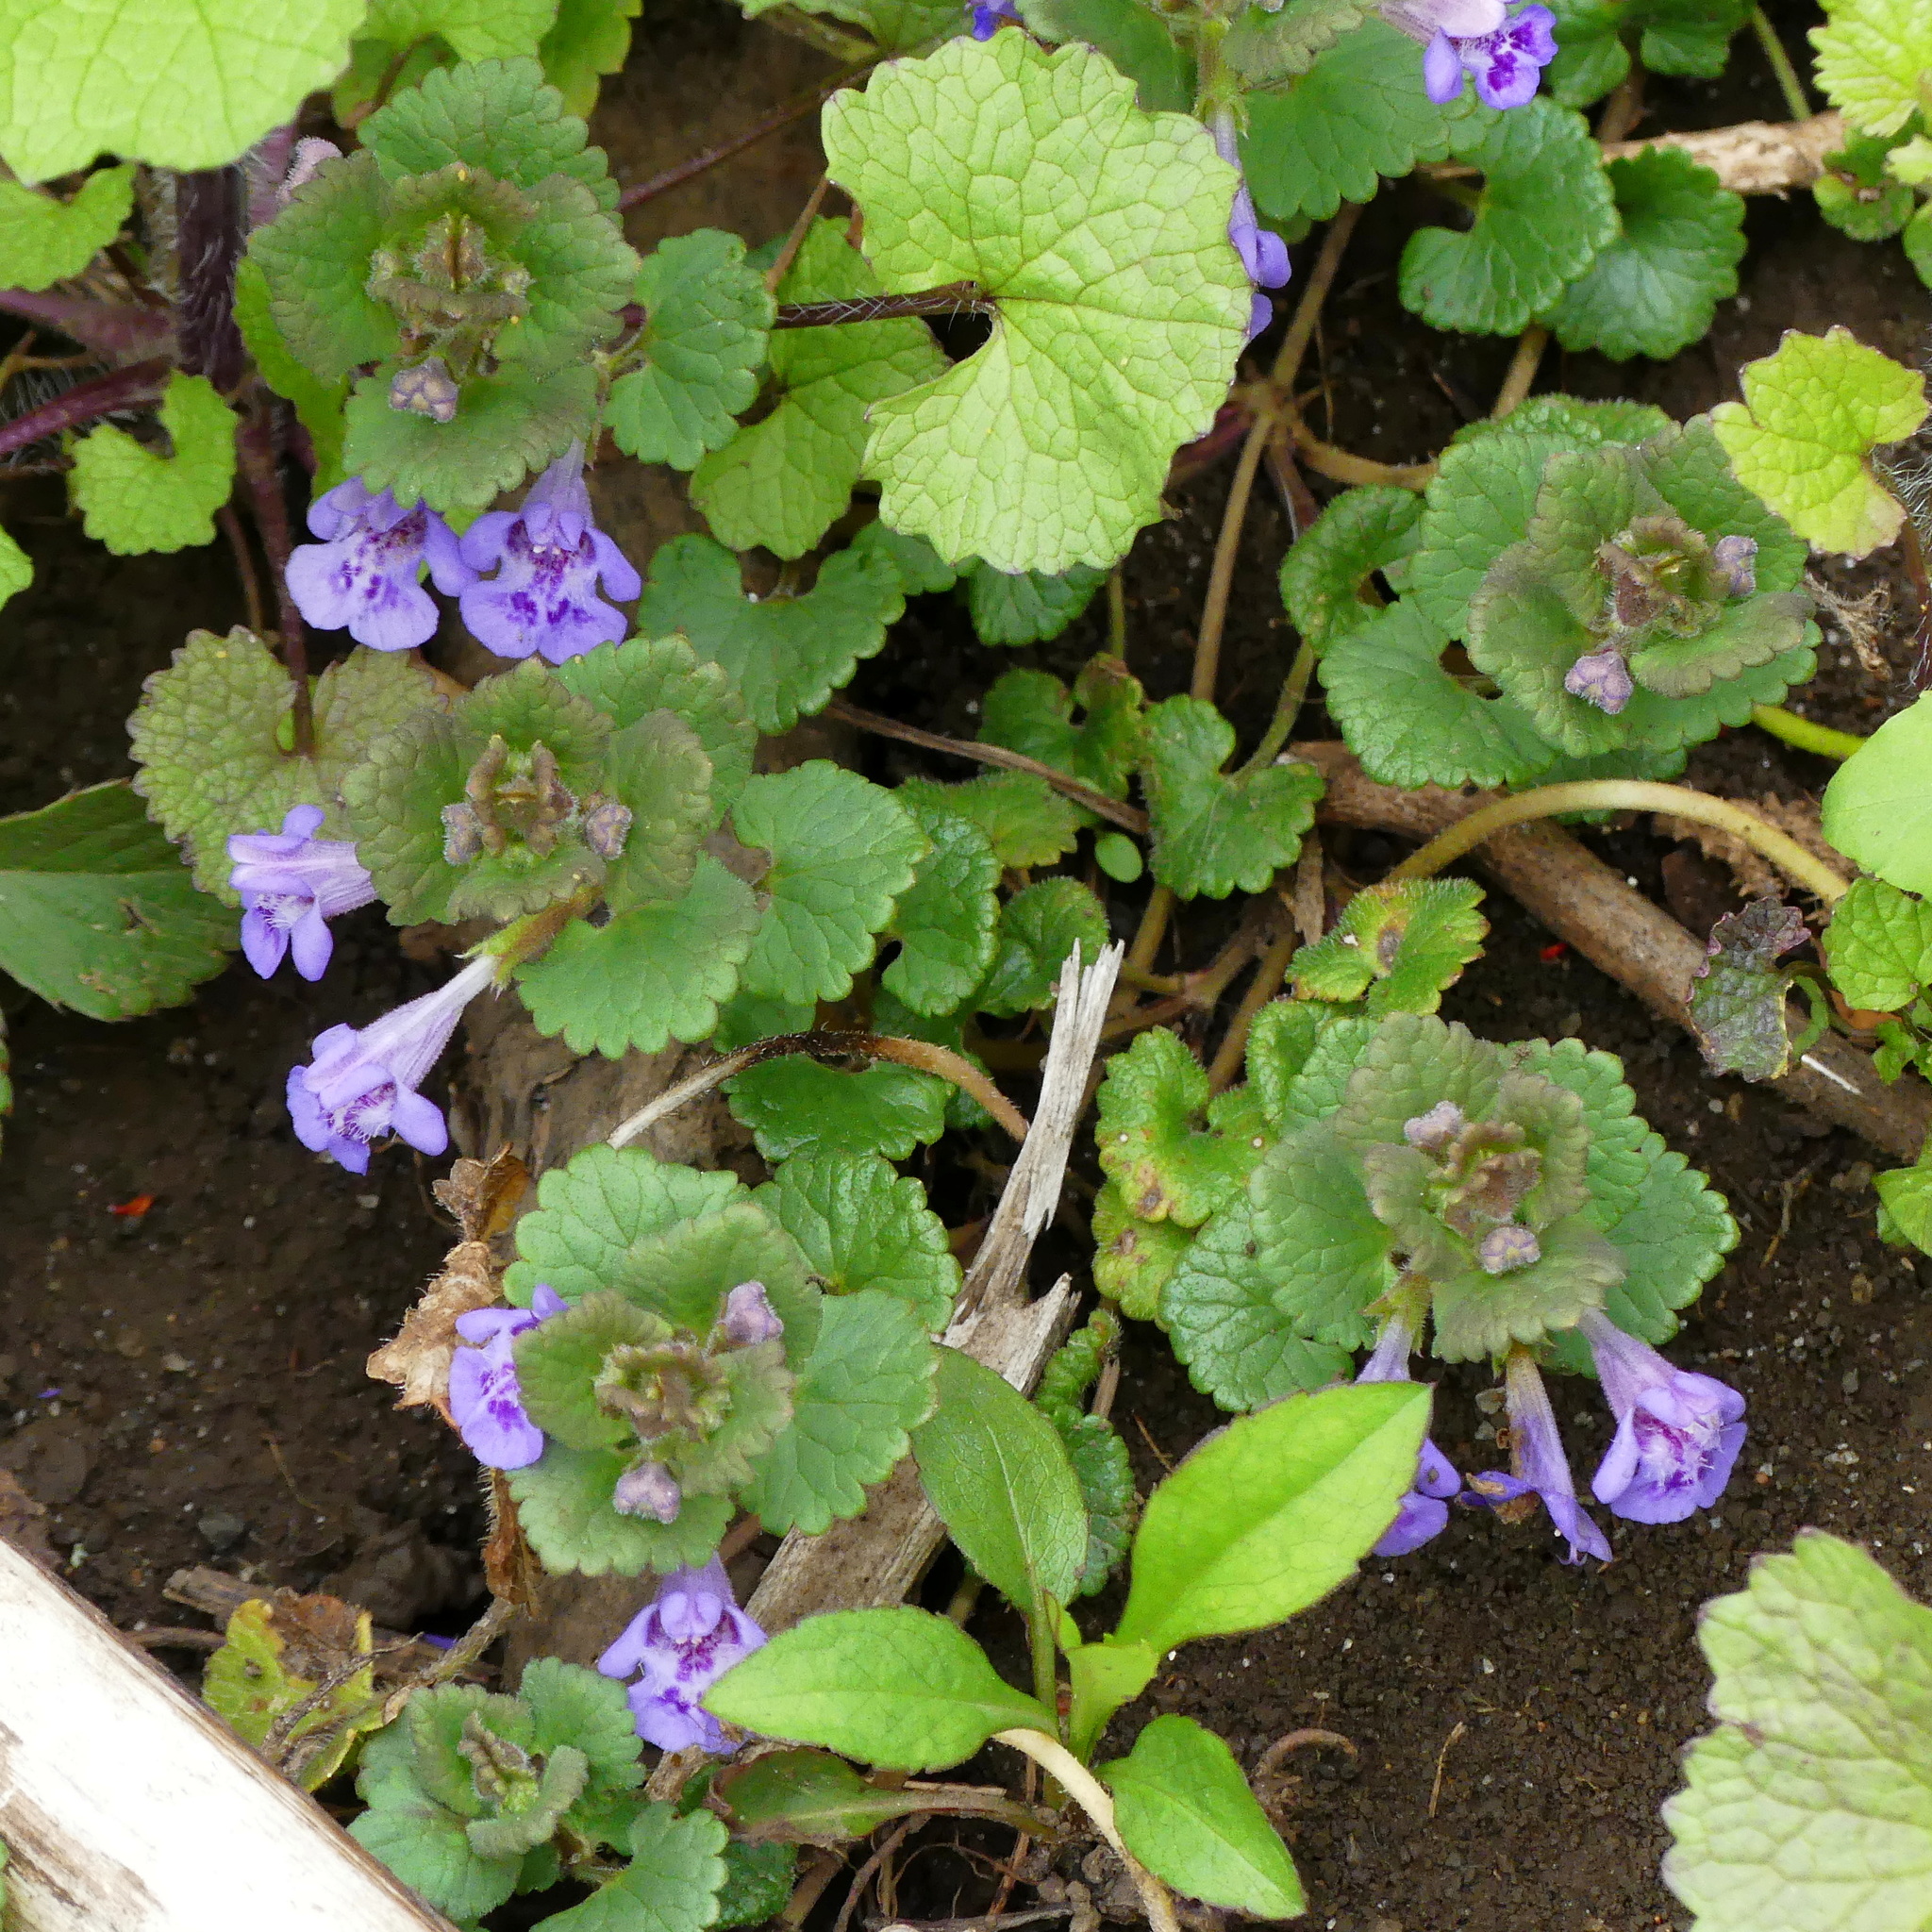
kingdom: Plantae
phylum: Tracheophyta
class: Magnoliopsida
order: Lamiales
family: Lamiaceae
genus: Glechoma
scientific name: Glechoma hederacea
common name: Ground ivy
